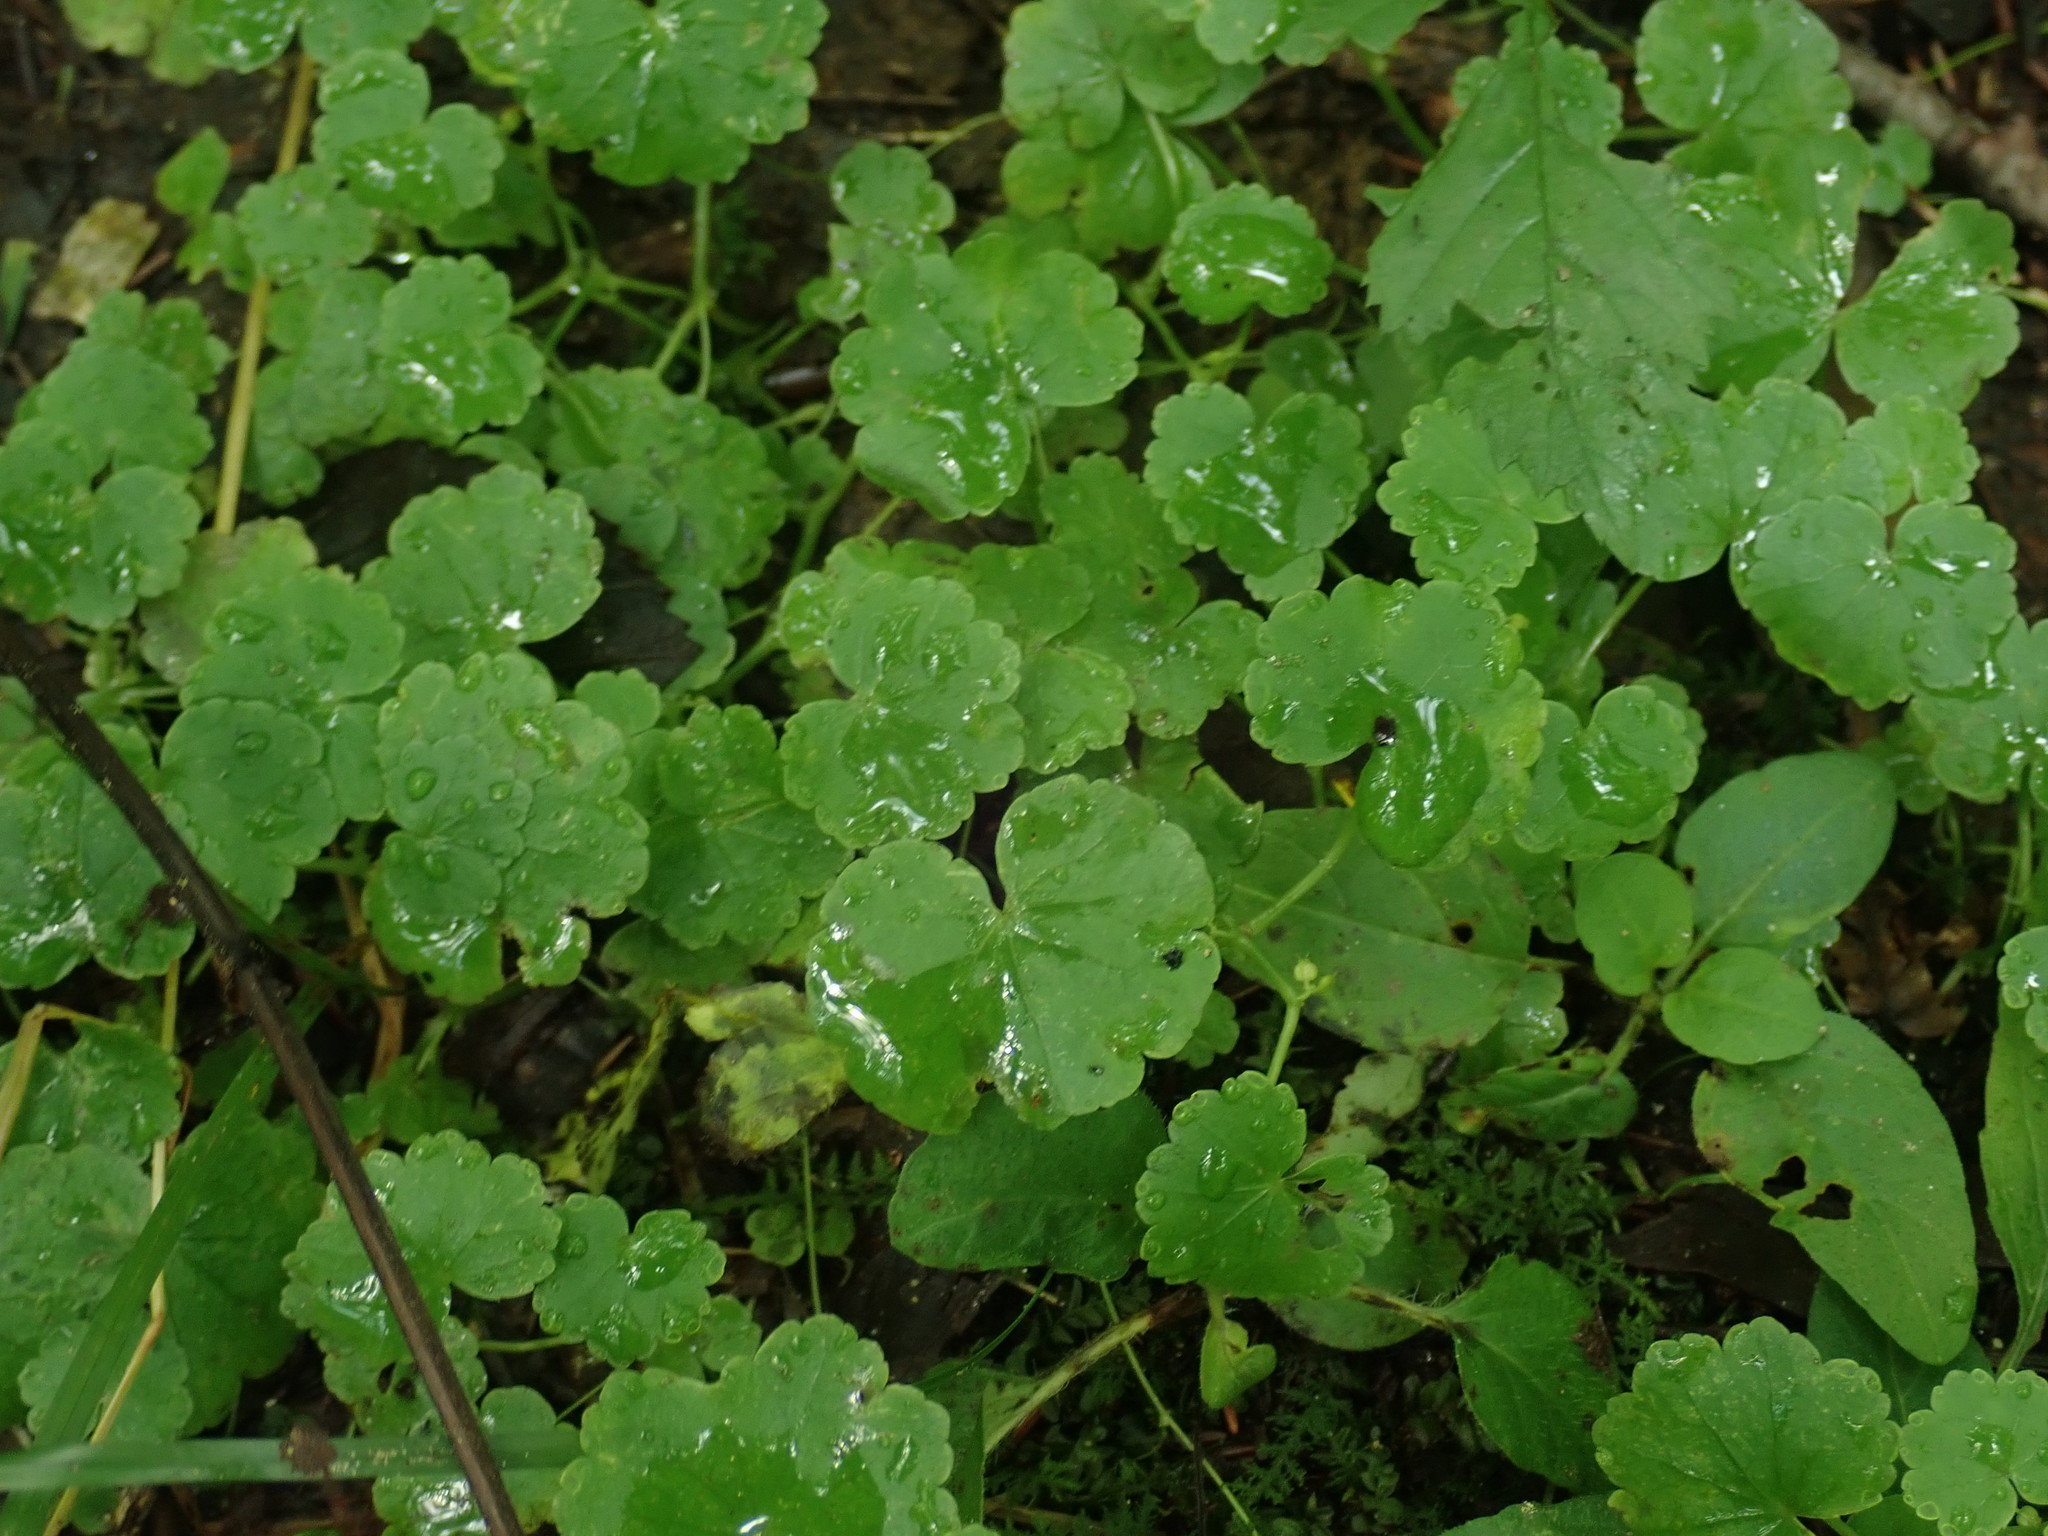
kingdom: Plantae
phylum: Tracheophyta
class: Magnoliopsida
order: Apiales
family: Araliaceae
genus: Hydrocotyle
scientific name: Hydrocotyle americana
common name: American water-pennywort
